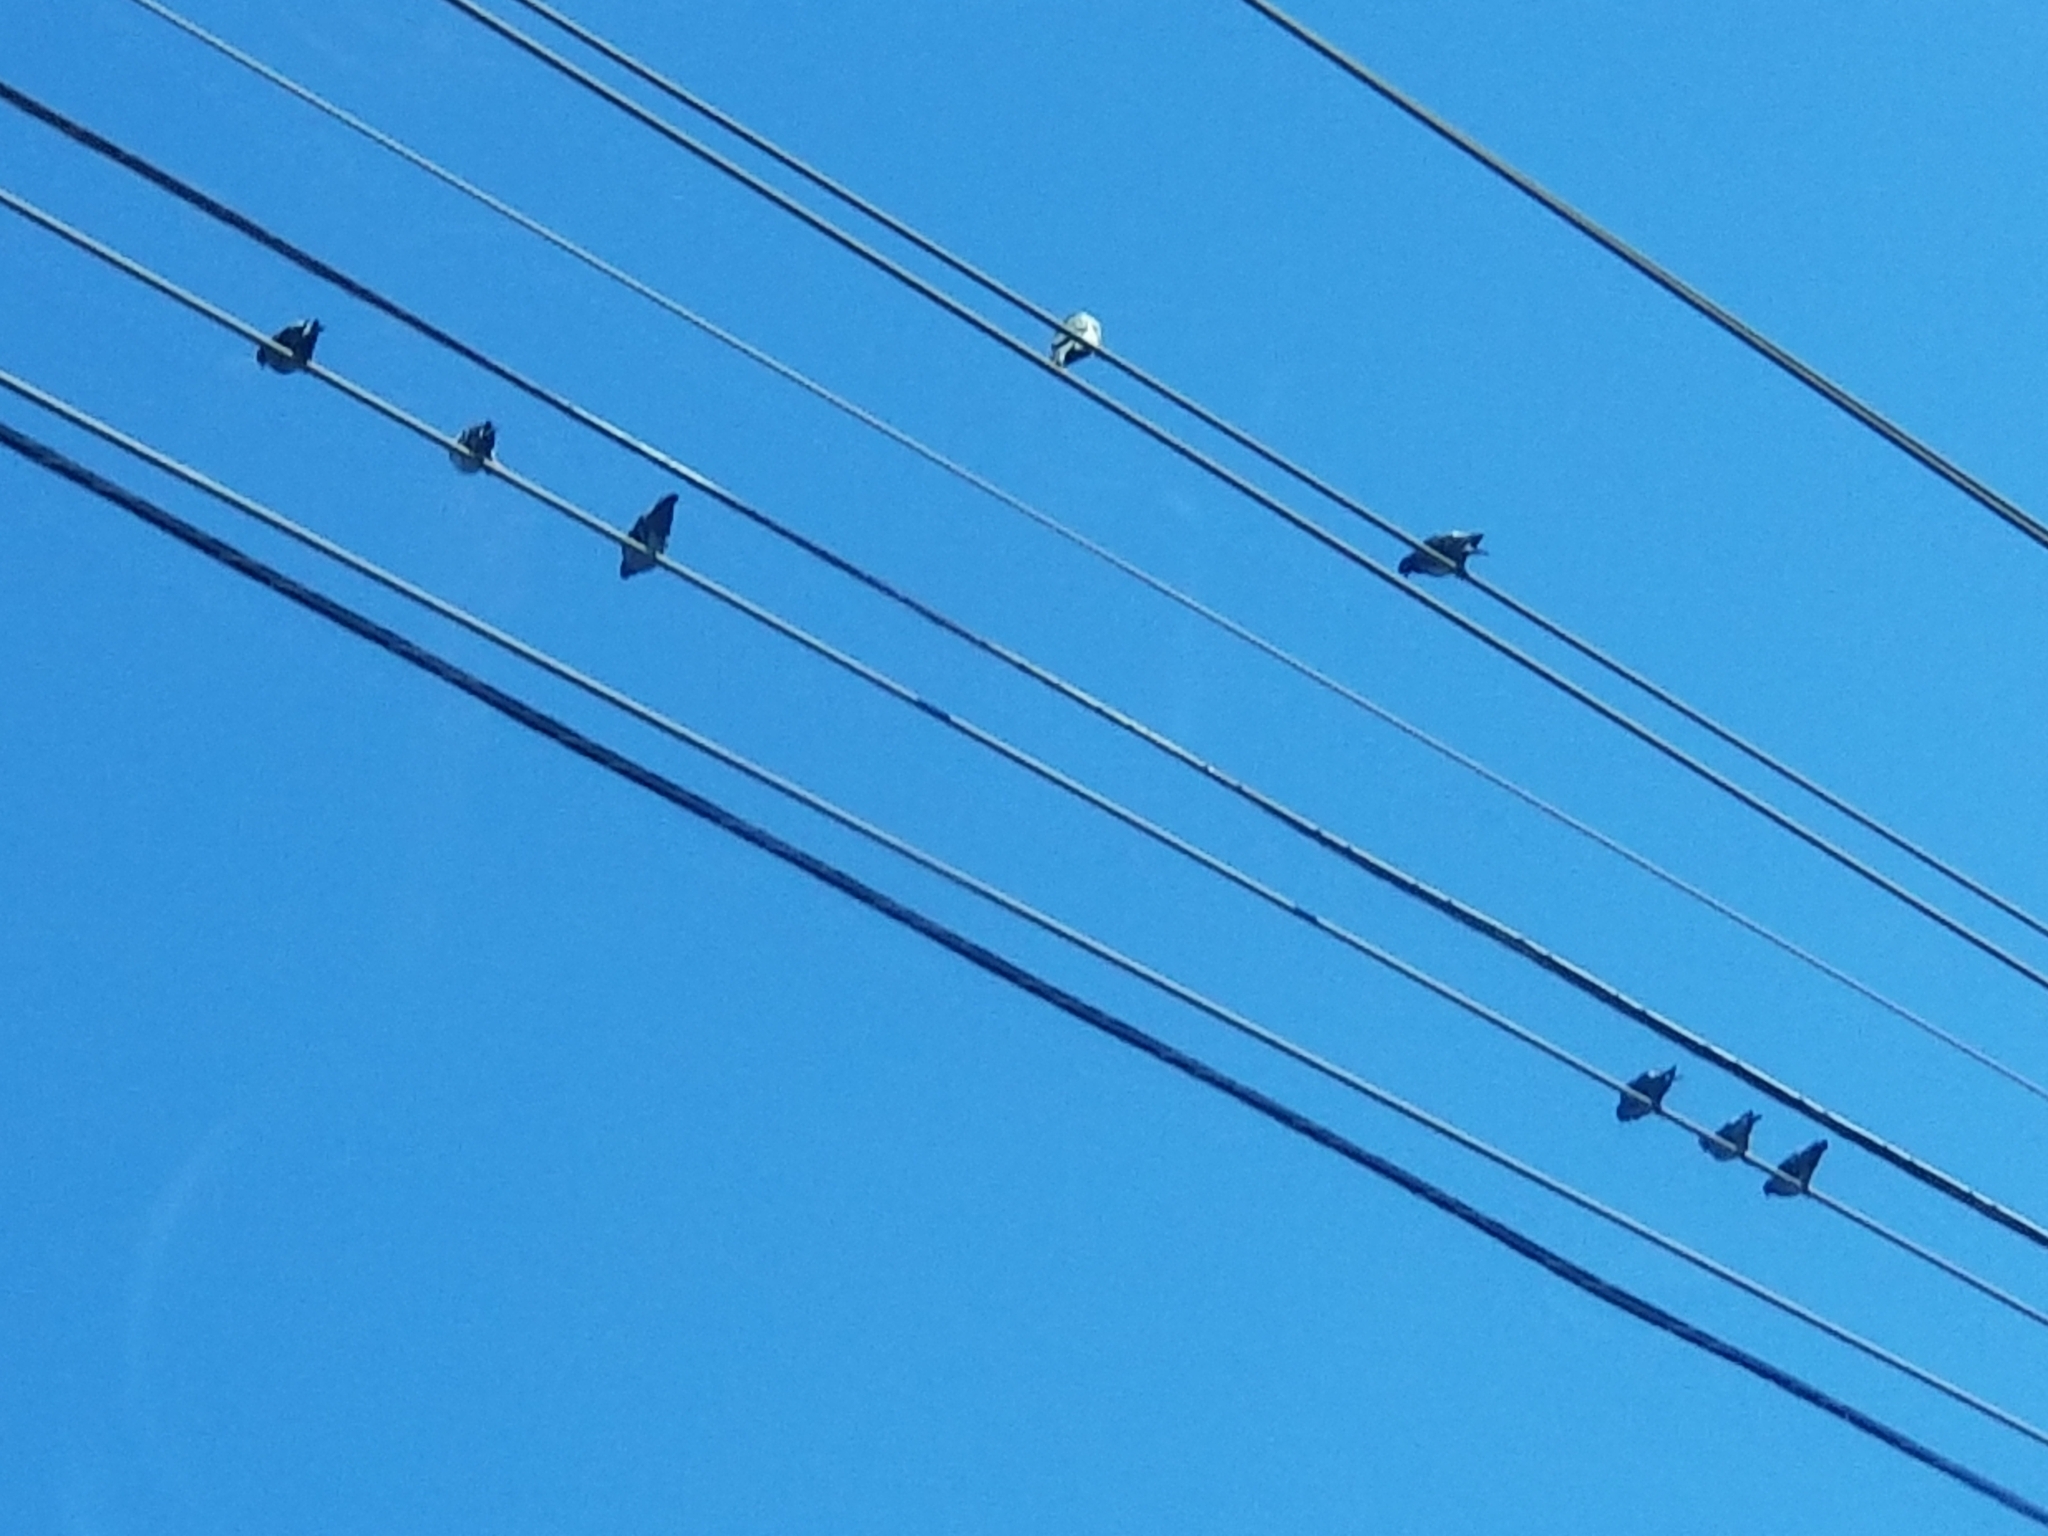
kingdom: Animalia
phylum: Chordata
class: Aves
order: Columbiformes
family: Columbidae
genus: Columba
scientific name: Columba livia
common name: Rock pigeon
